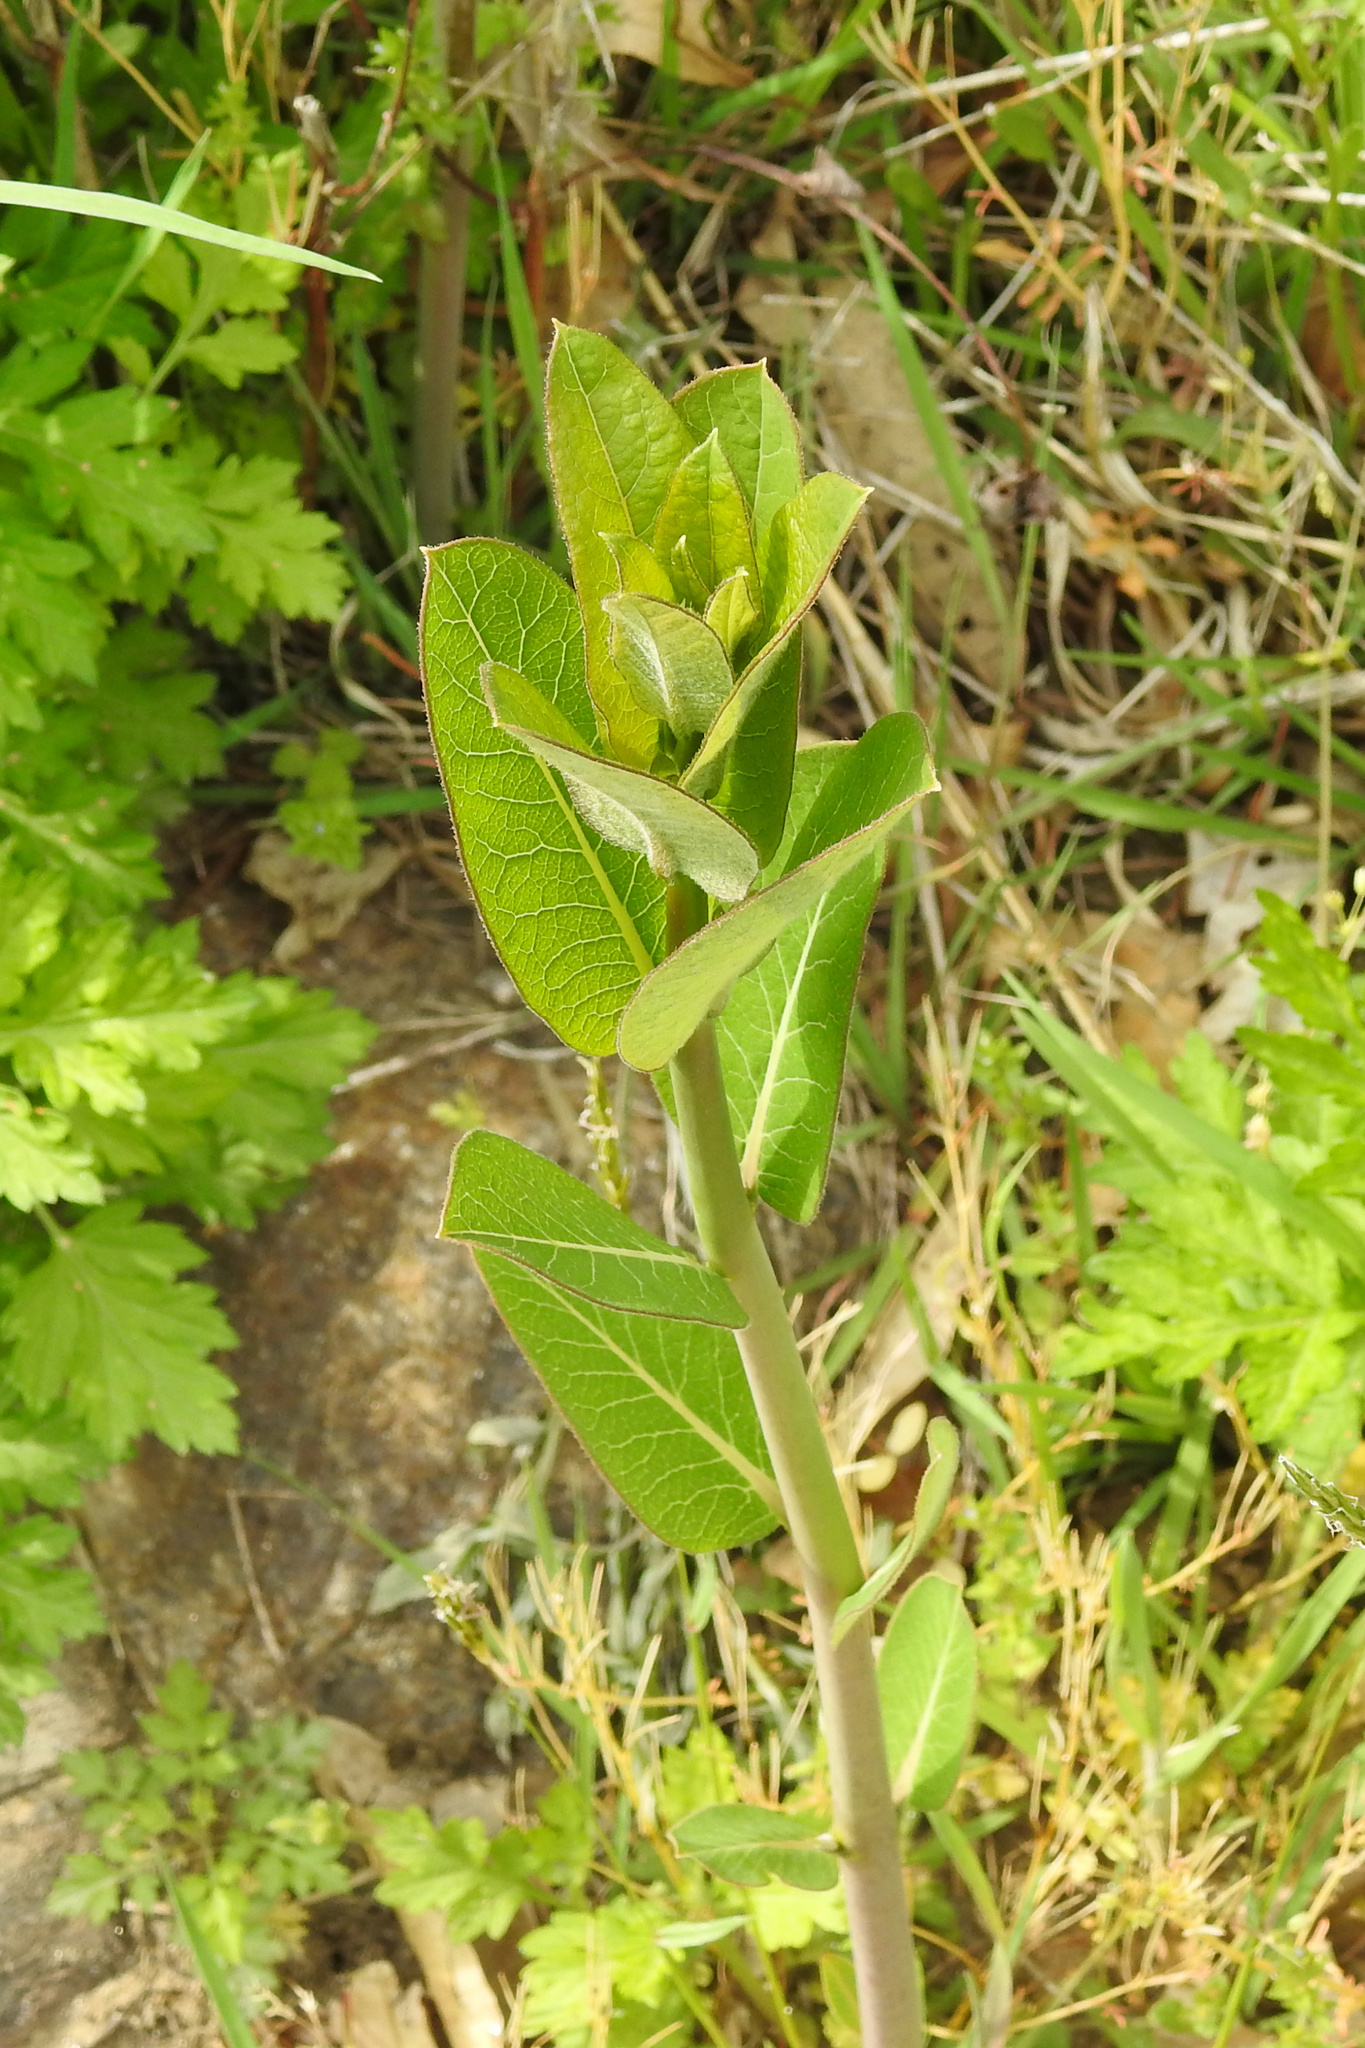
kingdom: Plantae
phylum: Tracheophyta
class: Magnoliopsida
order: Gentianales
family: Apocynaceae
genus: Apocynum
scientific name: Apocynum cannabinum
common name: Hemp dogbane
